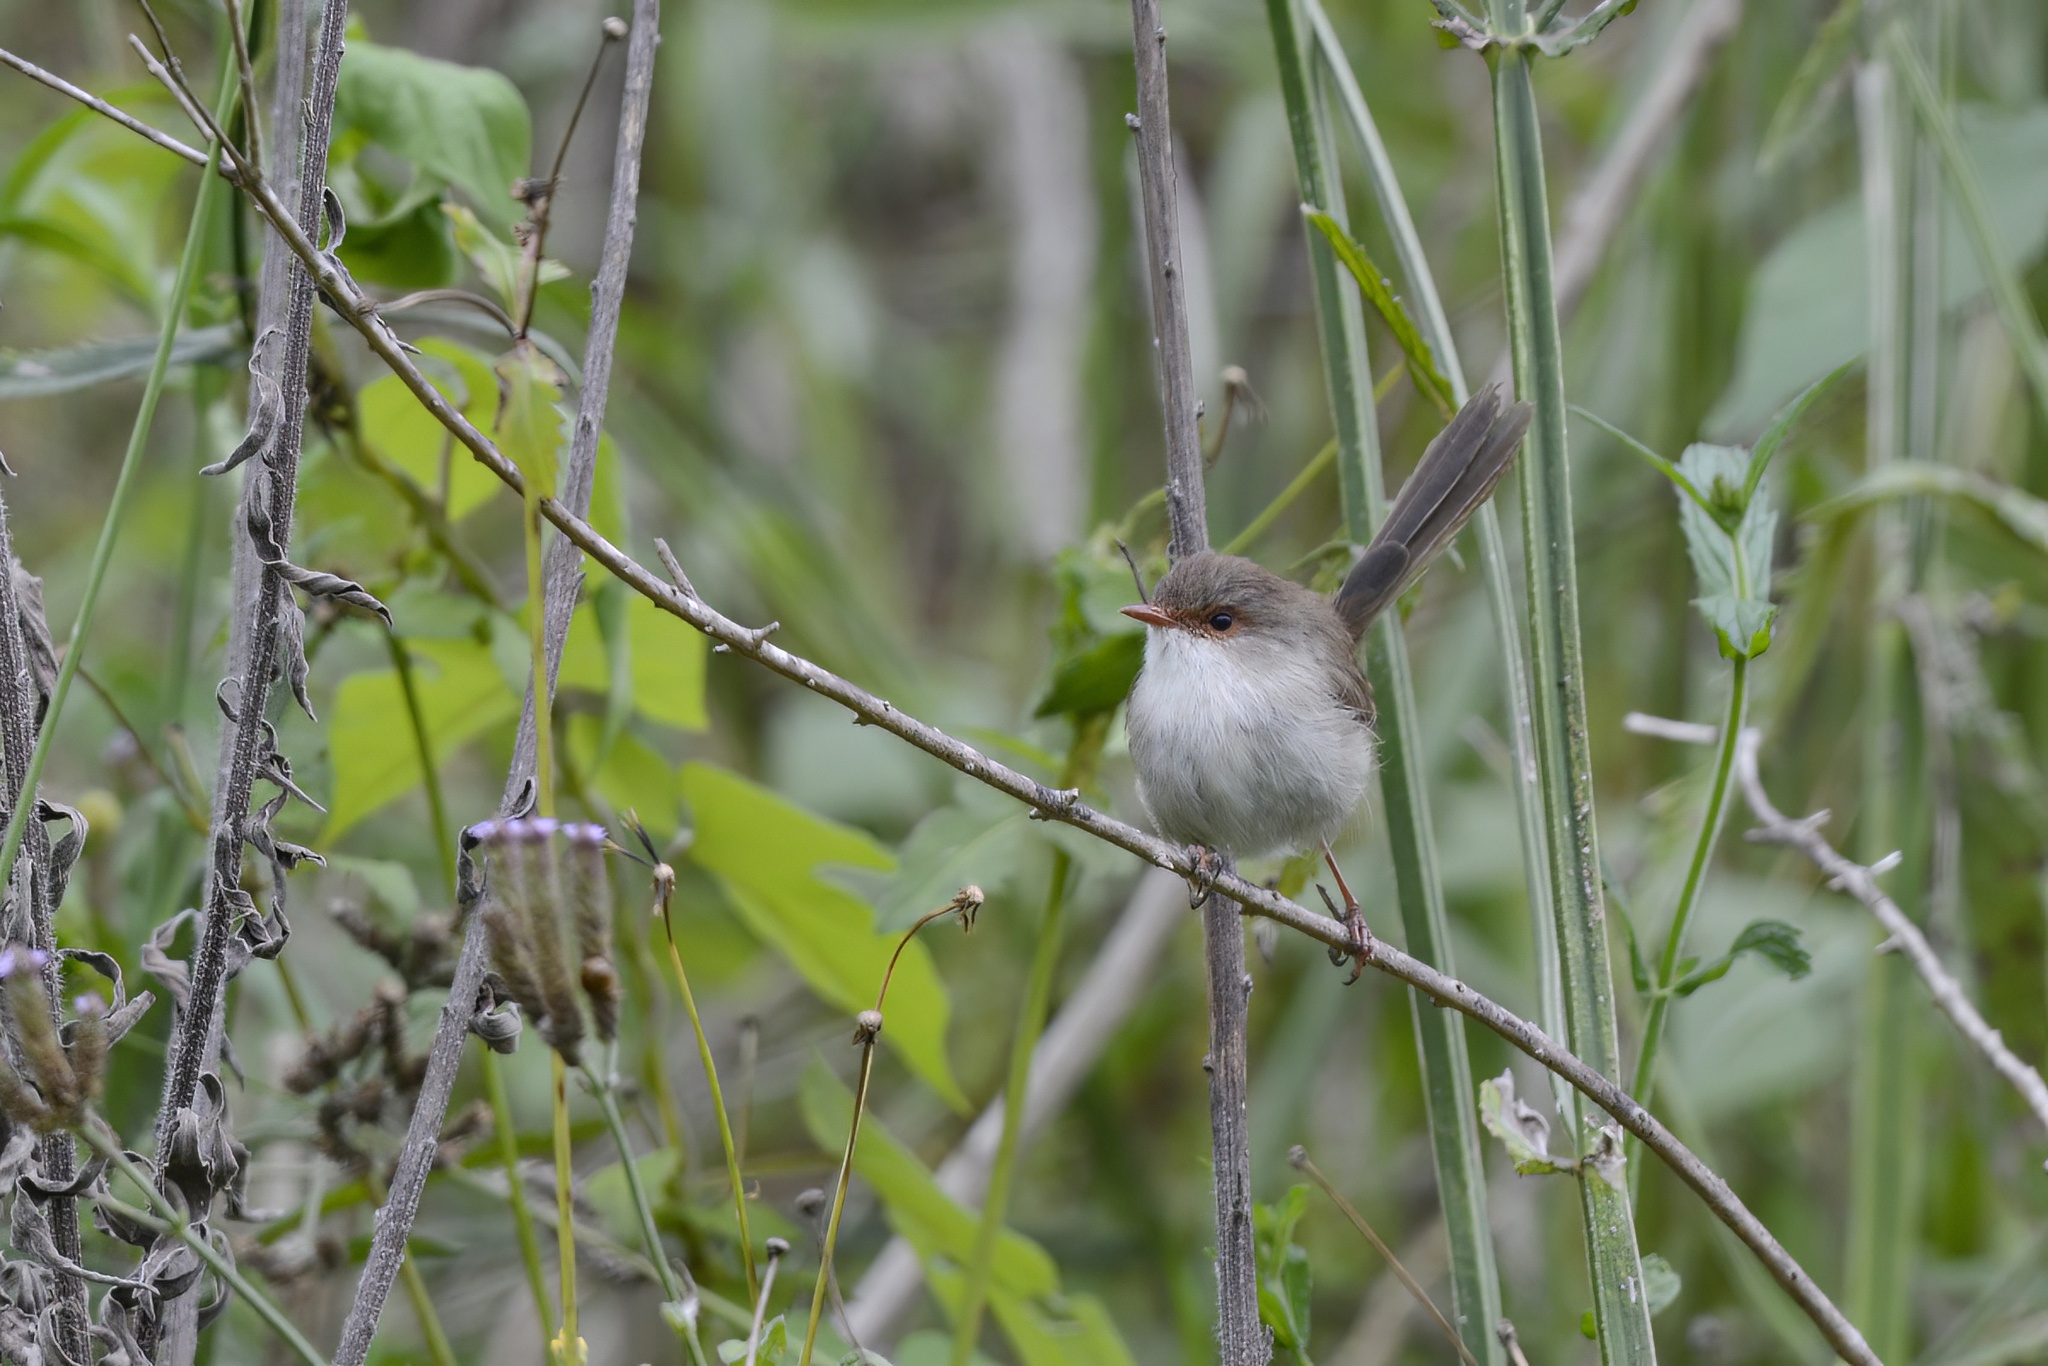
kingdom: Animalia
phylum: Chordata
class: Aves
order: Passeriformes
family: Maluridae
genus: Malurus
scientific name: Malurus cyaneus
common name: Superb fairywren
